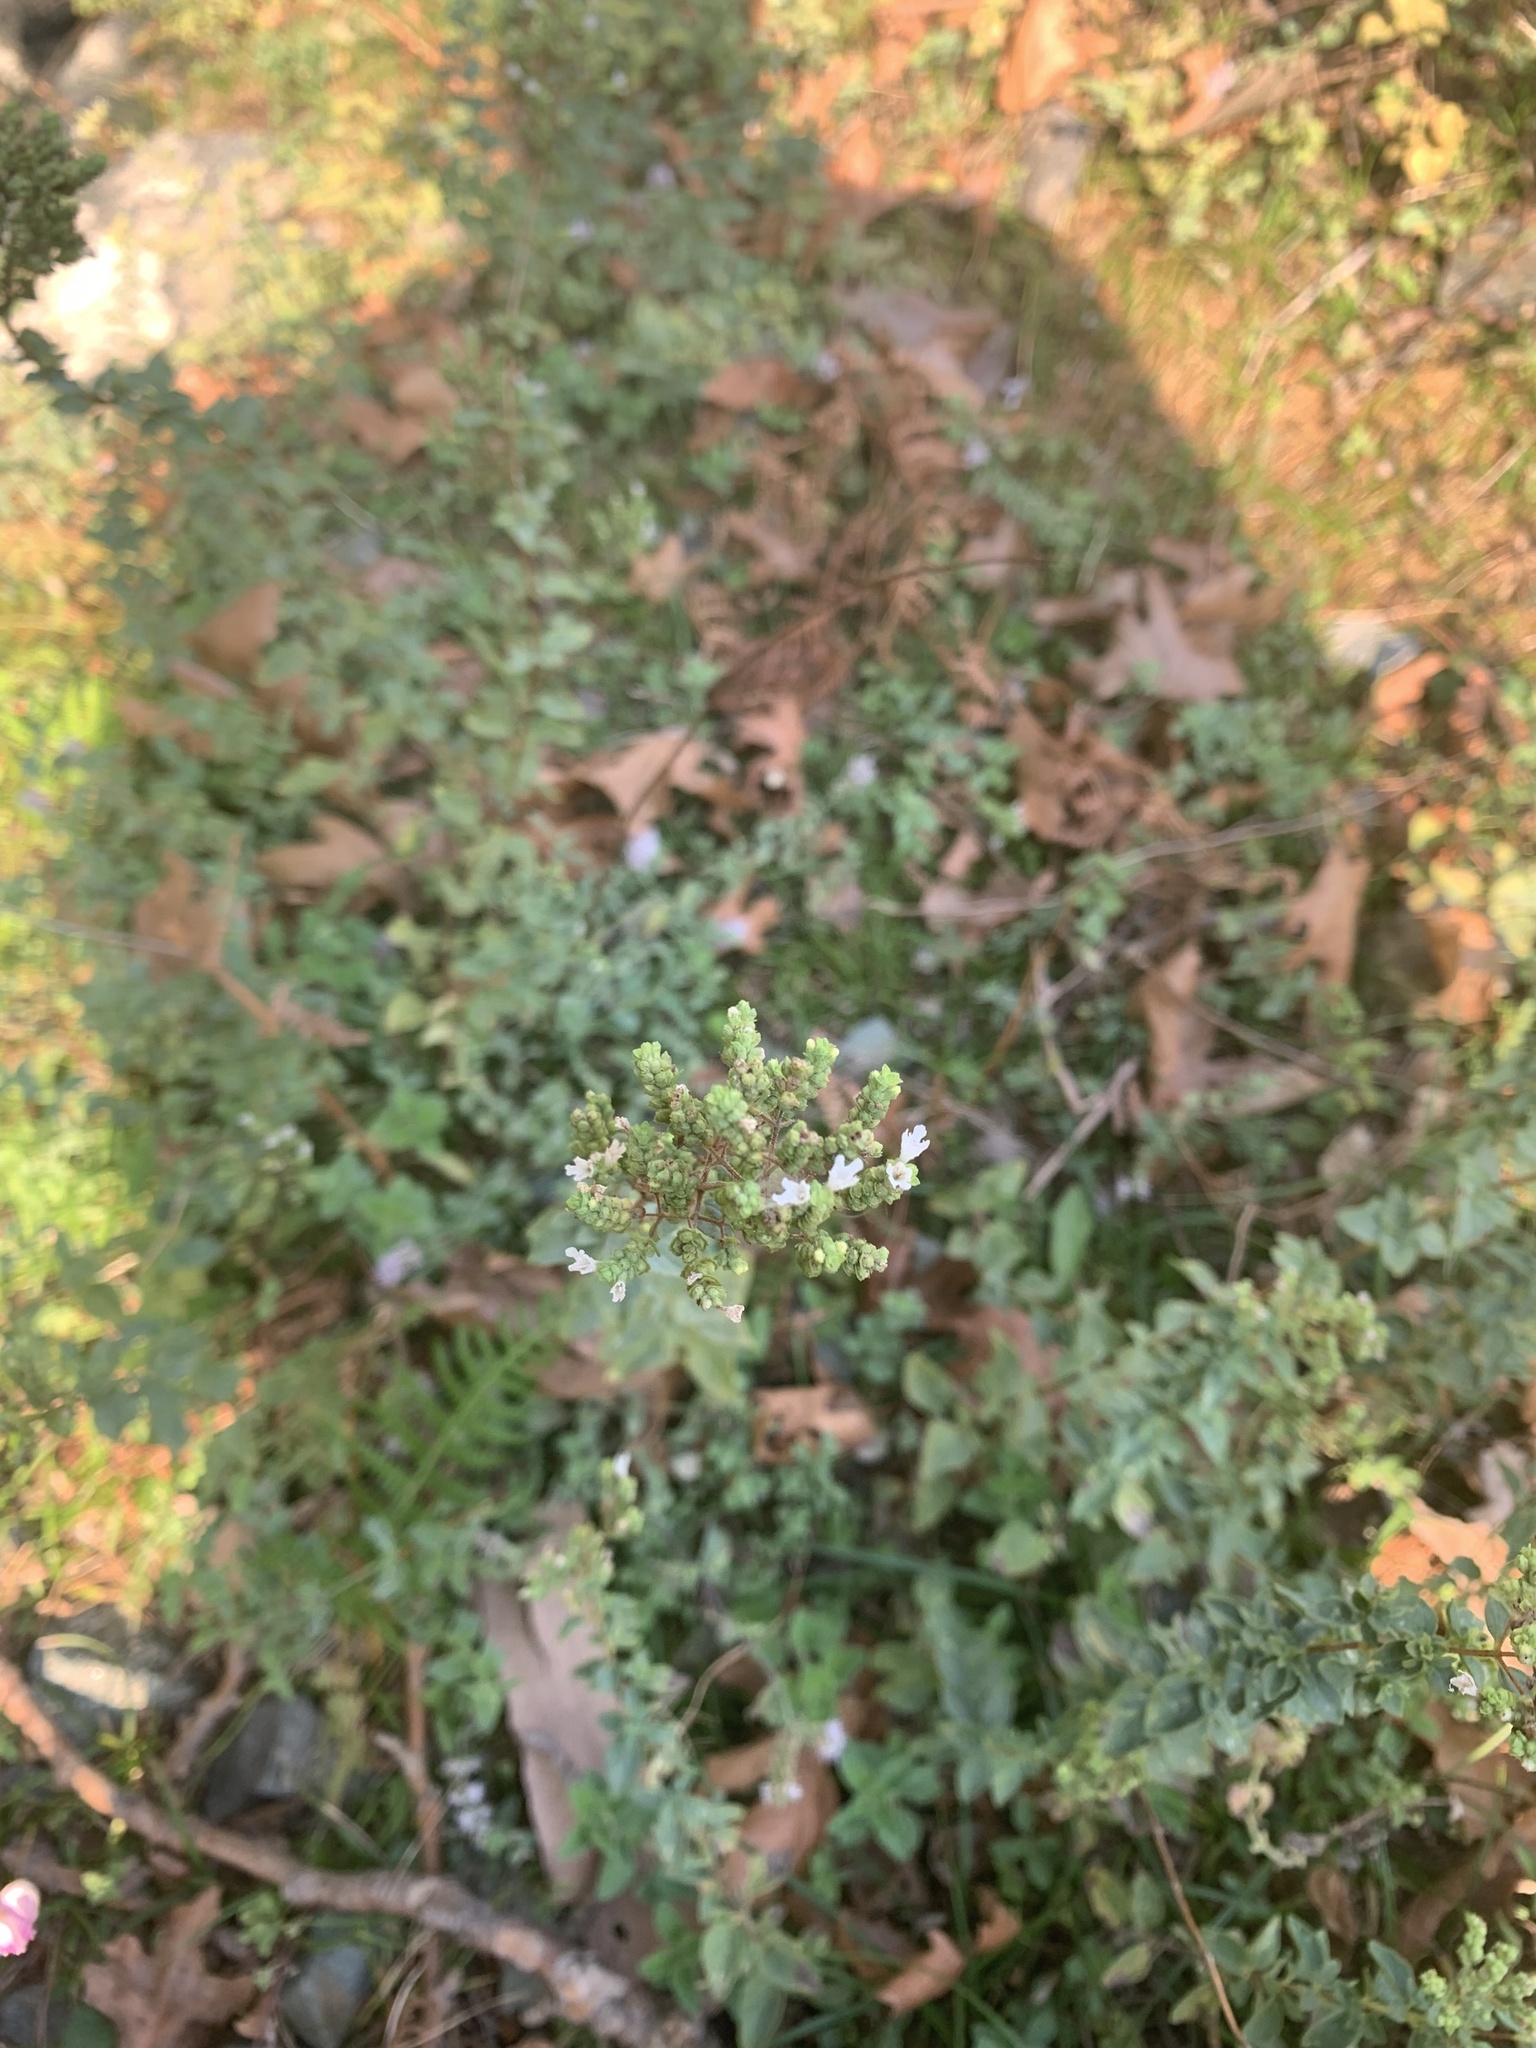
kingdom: Plantae
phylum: Tracheophyta
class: Magnoliopsida
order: Lamiales
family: Lamiaceae
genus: Origanum
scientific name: Origanum vulgare
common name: Wild marjoram
